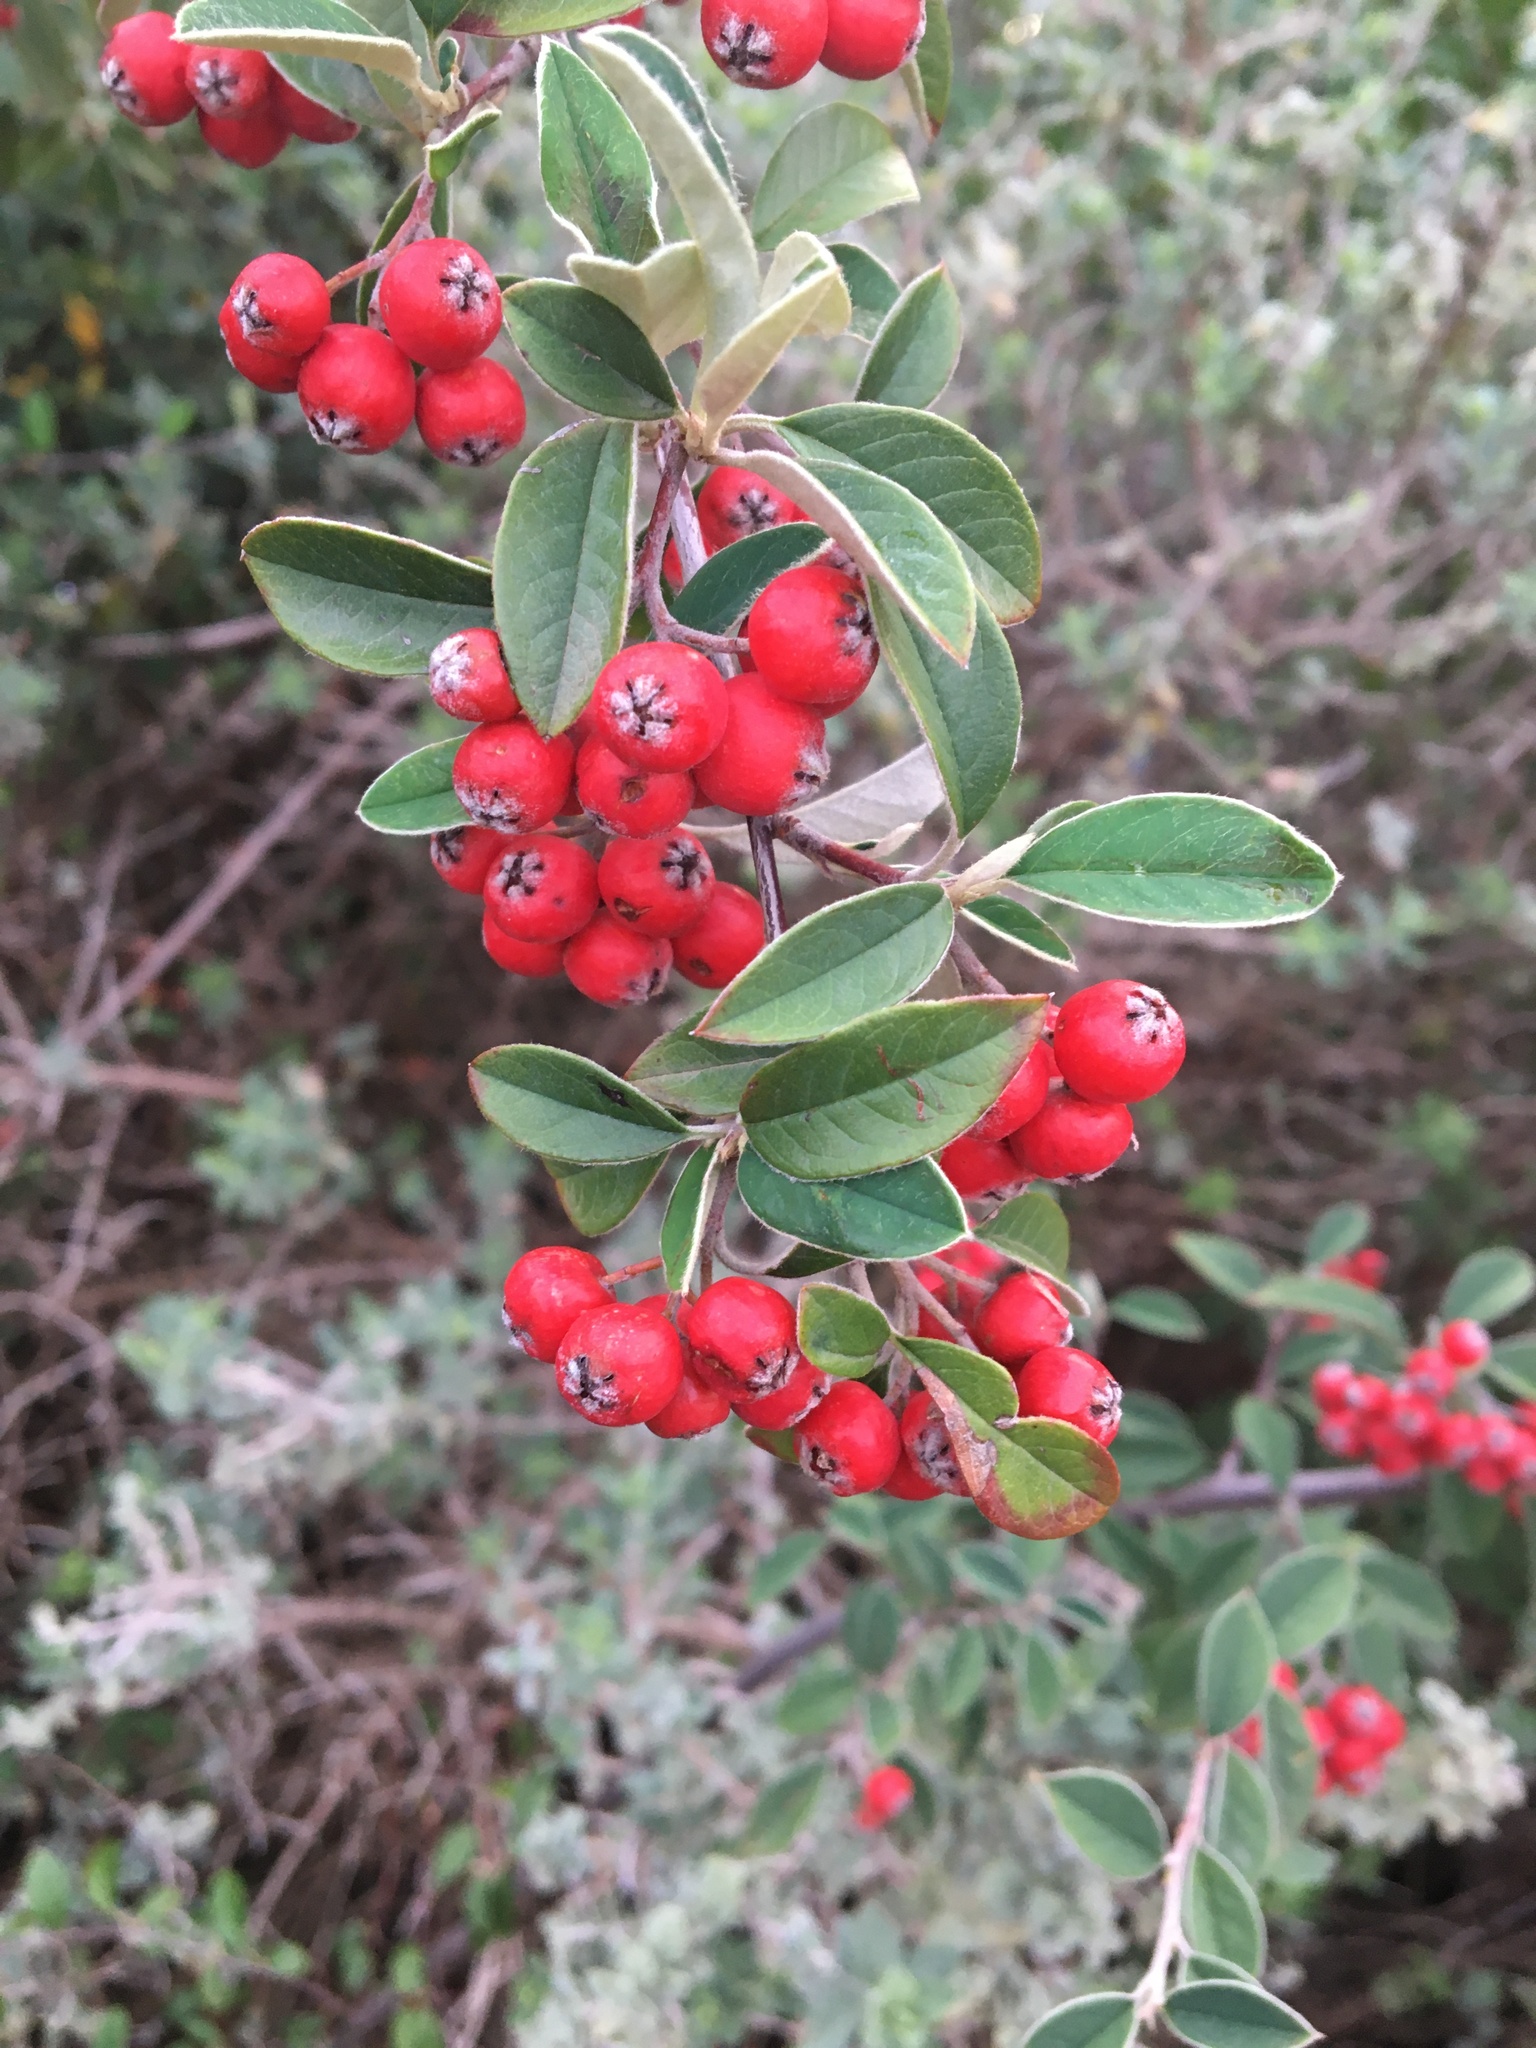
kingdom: Plantae
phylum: Tracheophyta
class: Magnoliopsida
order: Rosales
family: Rosaceae
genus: Cotoneaster
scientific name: Cotoneaster pannosus
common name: Silverleaf cotoneaster
